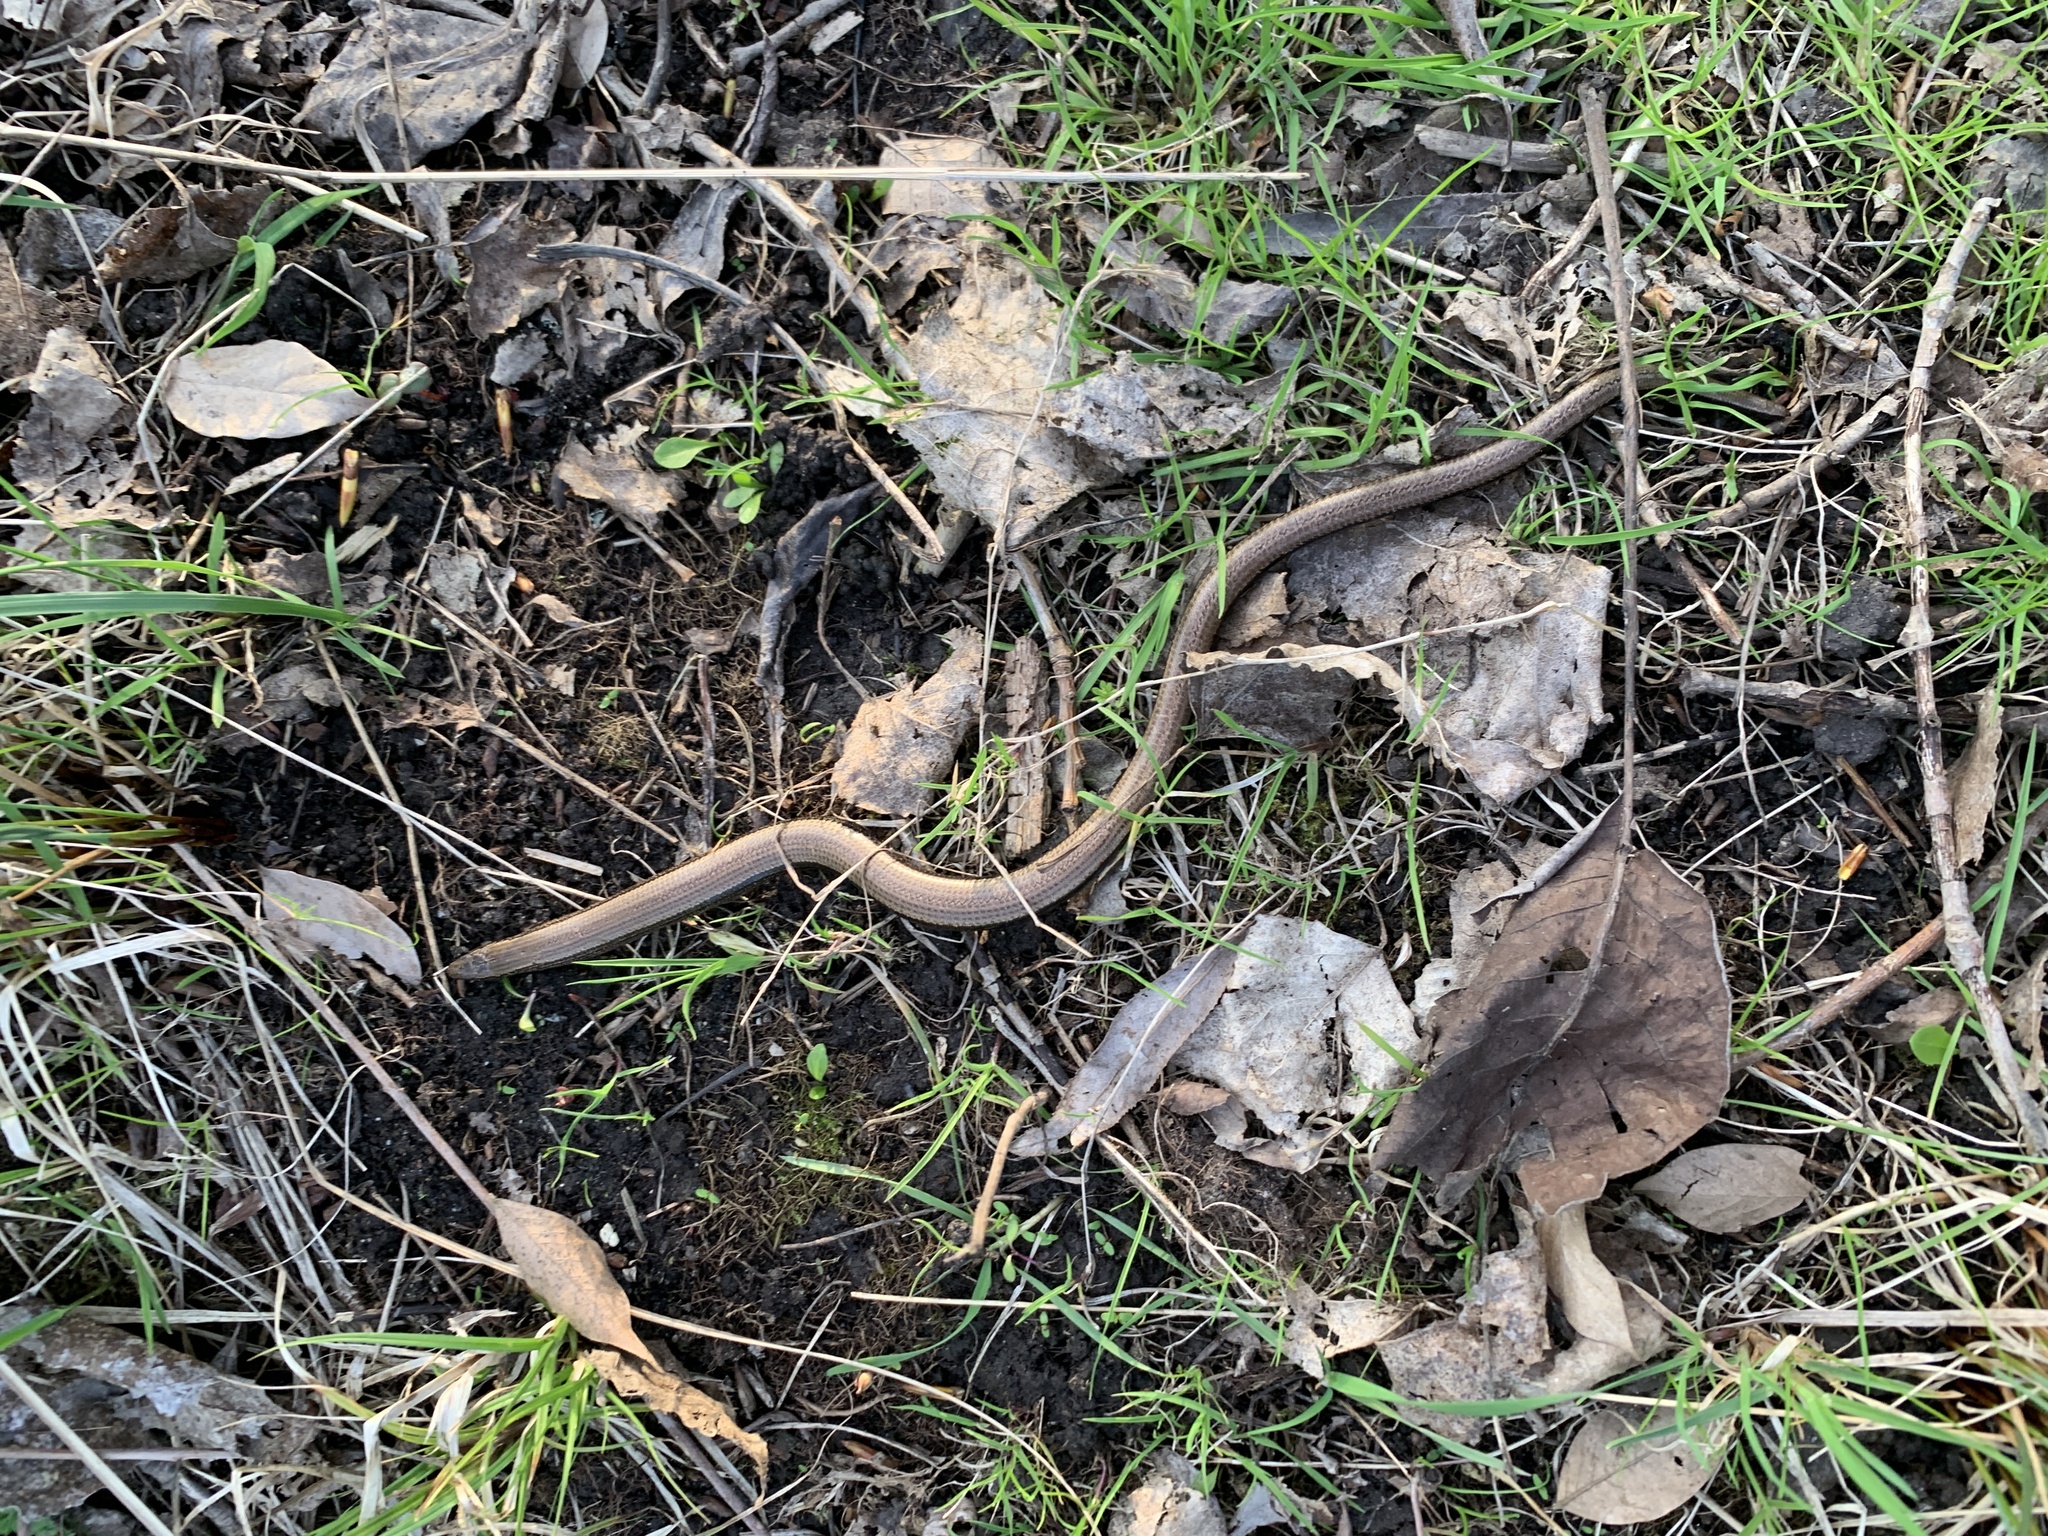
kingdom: Animalia
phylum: Chordata
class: Squamata
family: Anguidae
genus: Anguis
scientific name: Anguis fragilis
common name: Slow worm
